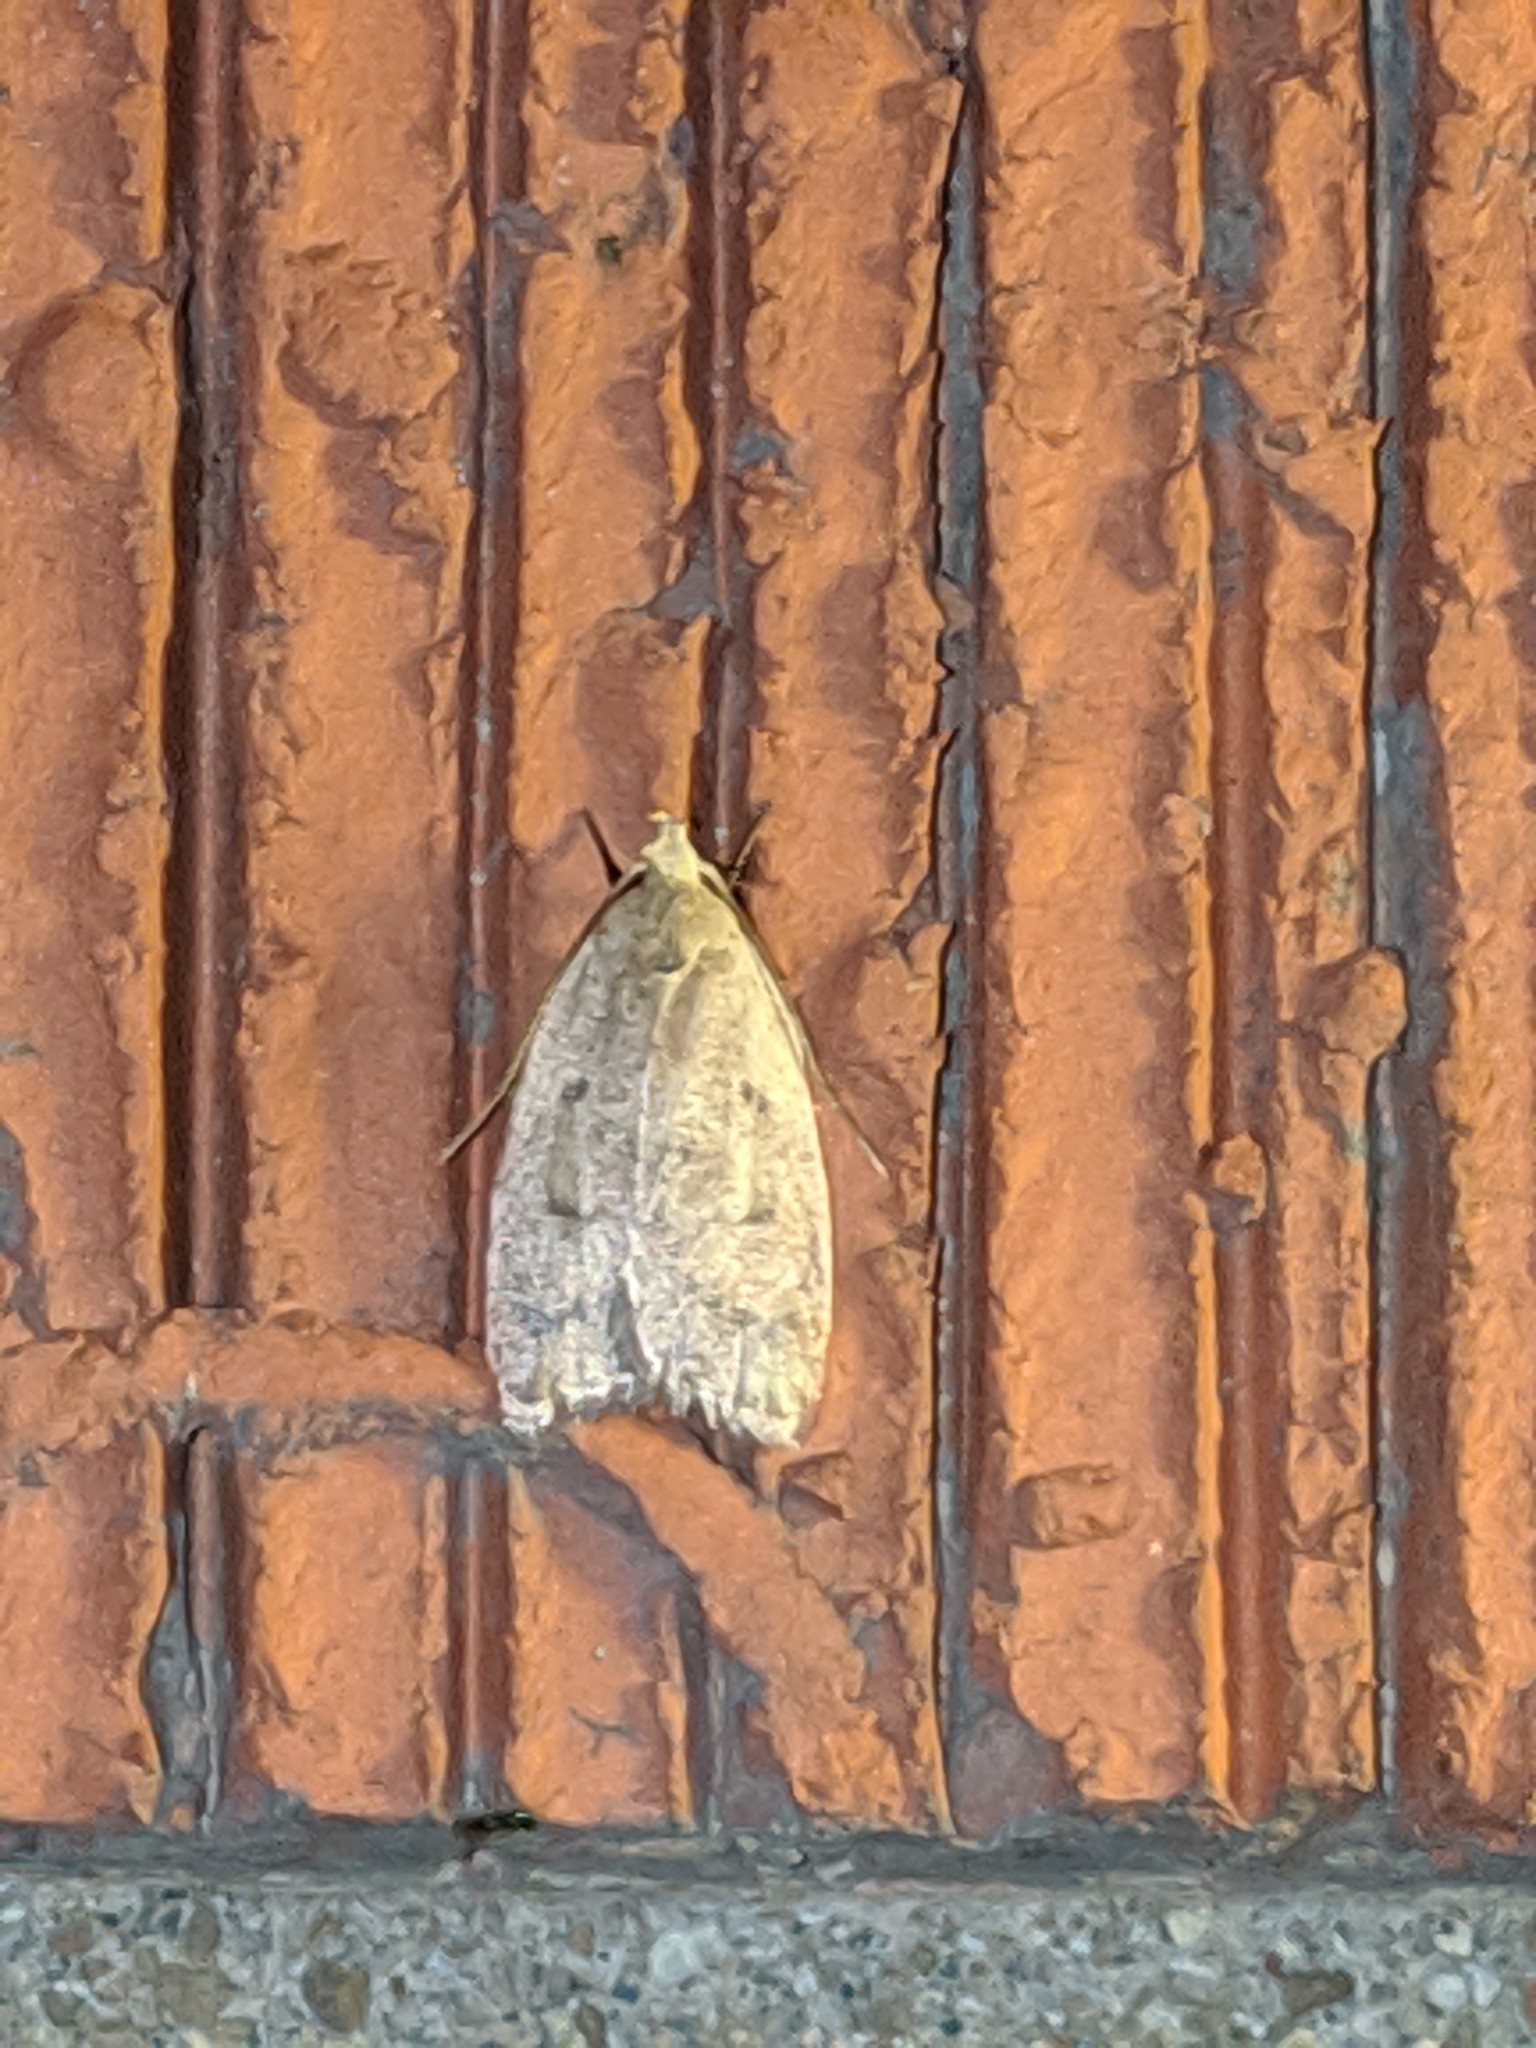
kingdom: Animalia
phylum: Arthropoda
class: Insecta
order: Lepidoptera
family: Peleopodidae
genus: Machimia
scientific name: Machimia tentoriferella
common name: Gold-striped leaftier moth
